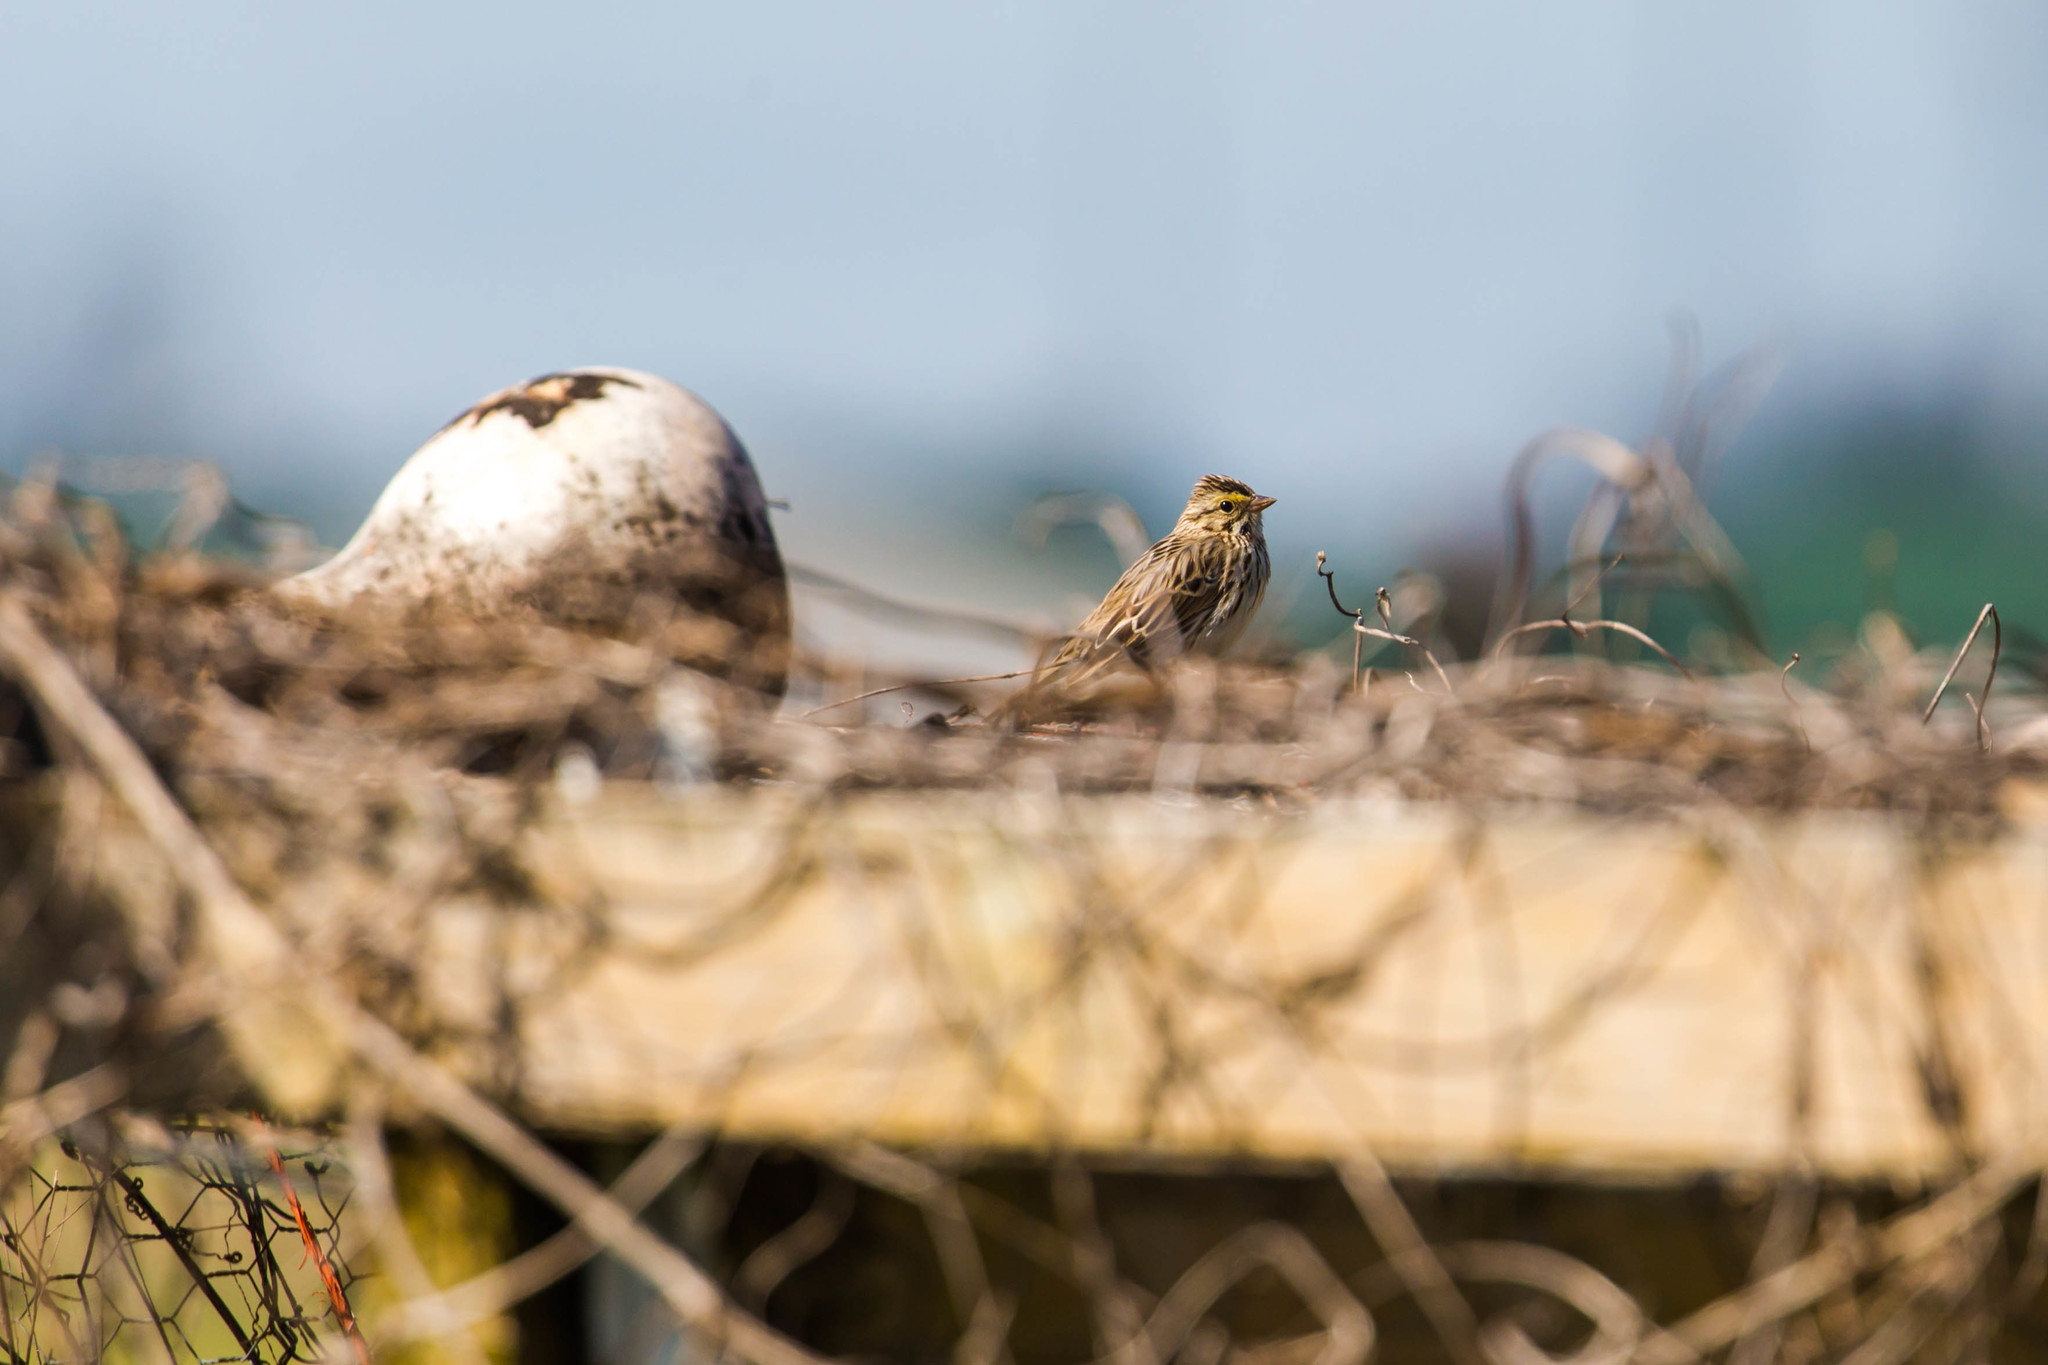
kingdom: Animalia
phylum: Chordata
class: Aves
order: Passeriformes
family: Passerellidae
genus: Passerculus
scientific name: Passerculus sandwichensis
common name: Savannah sparrow
